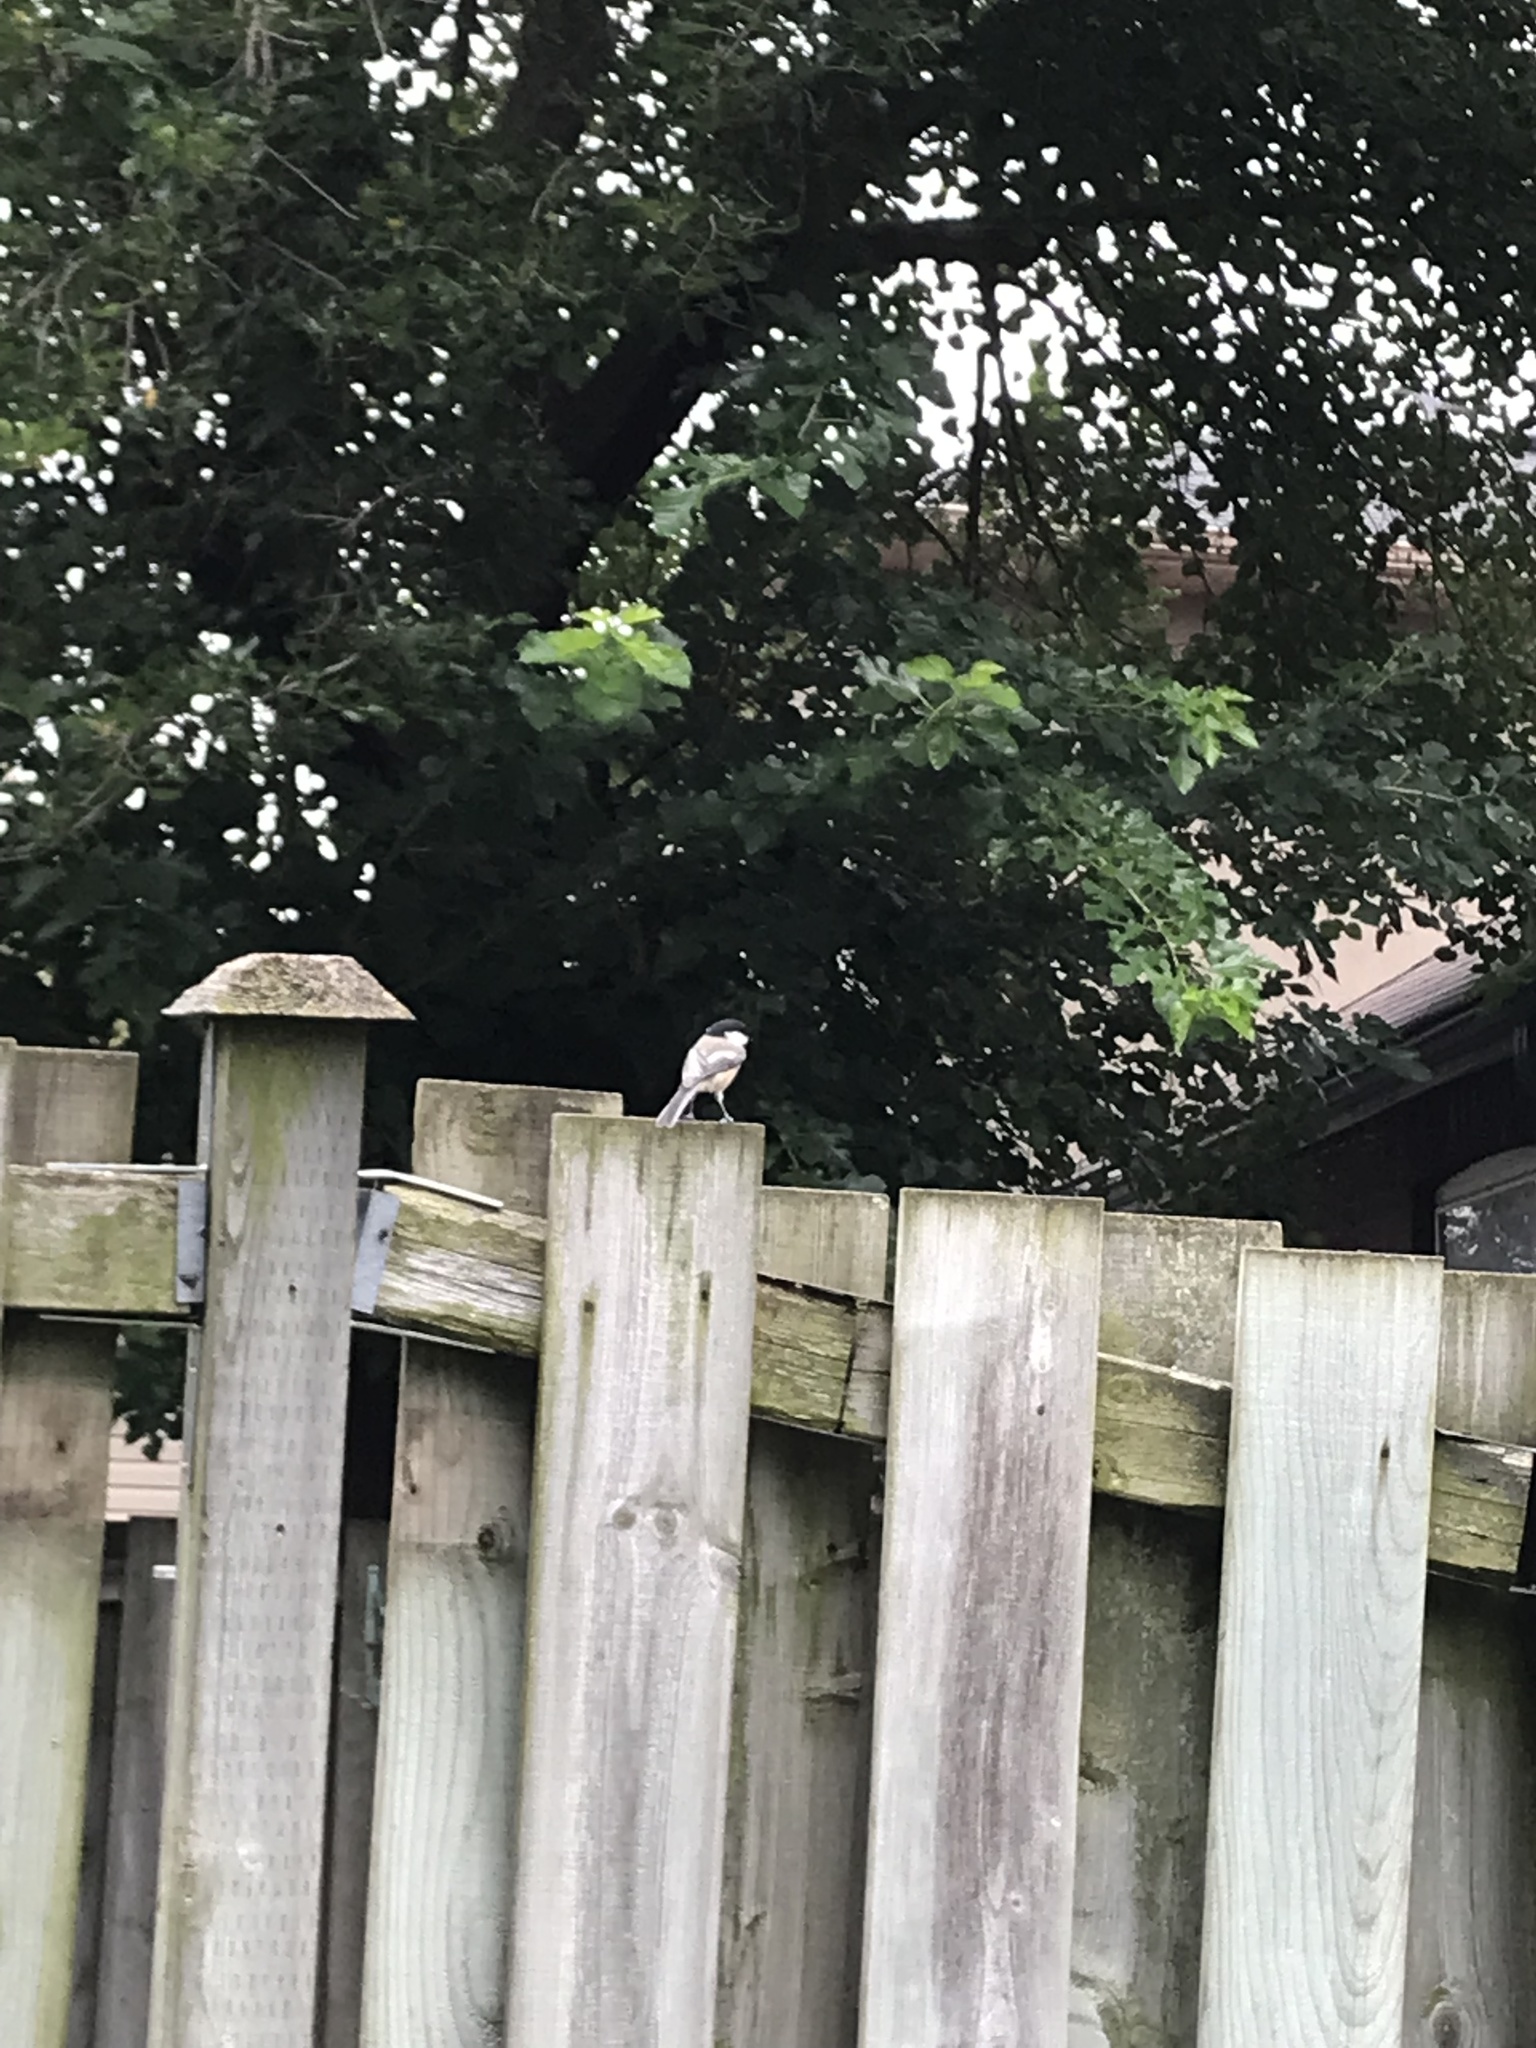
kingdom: Animalia
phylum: Chordata
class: Aves
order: Passeriformes
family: Paridae
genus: Poecile
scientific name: Poecile atricapillus
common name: Black-capped chickadee
